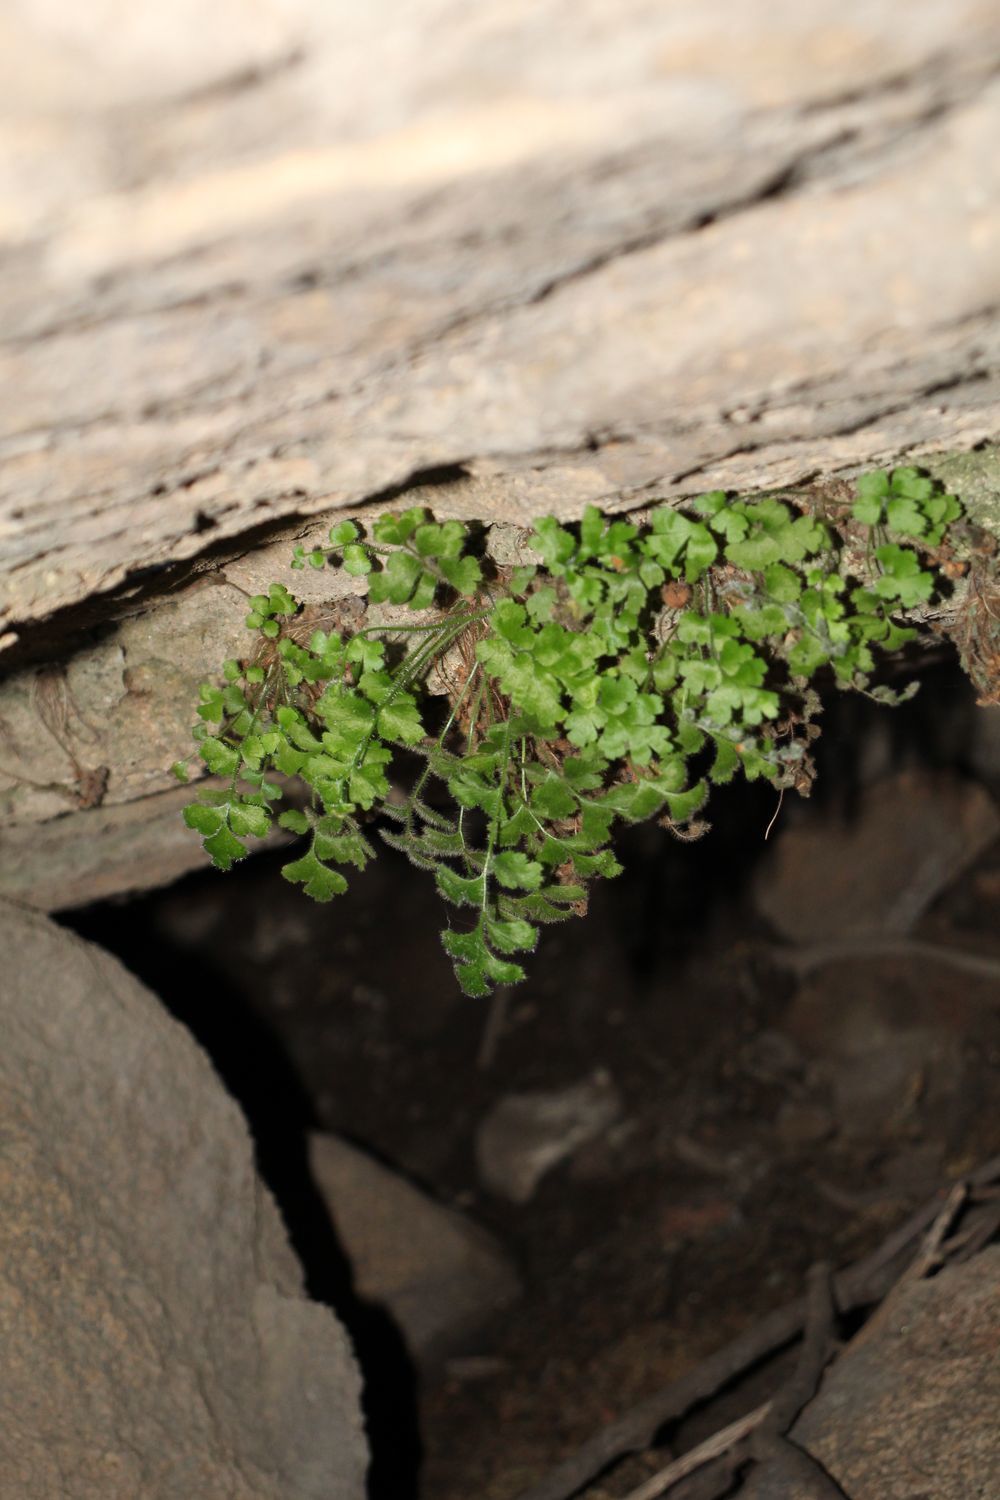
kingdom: Plantae
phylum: Tracheophyta
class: Polypodiopsida
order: Polypodiales
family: Aspleniaceae
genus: Asplenium
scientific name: Asplenium subglandulosum
